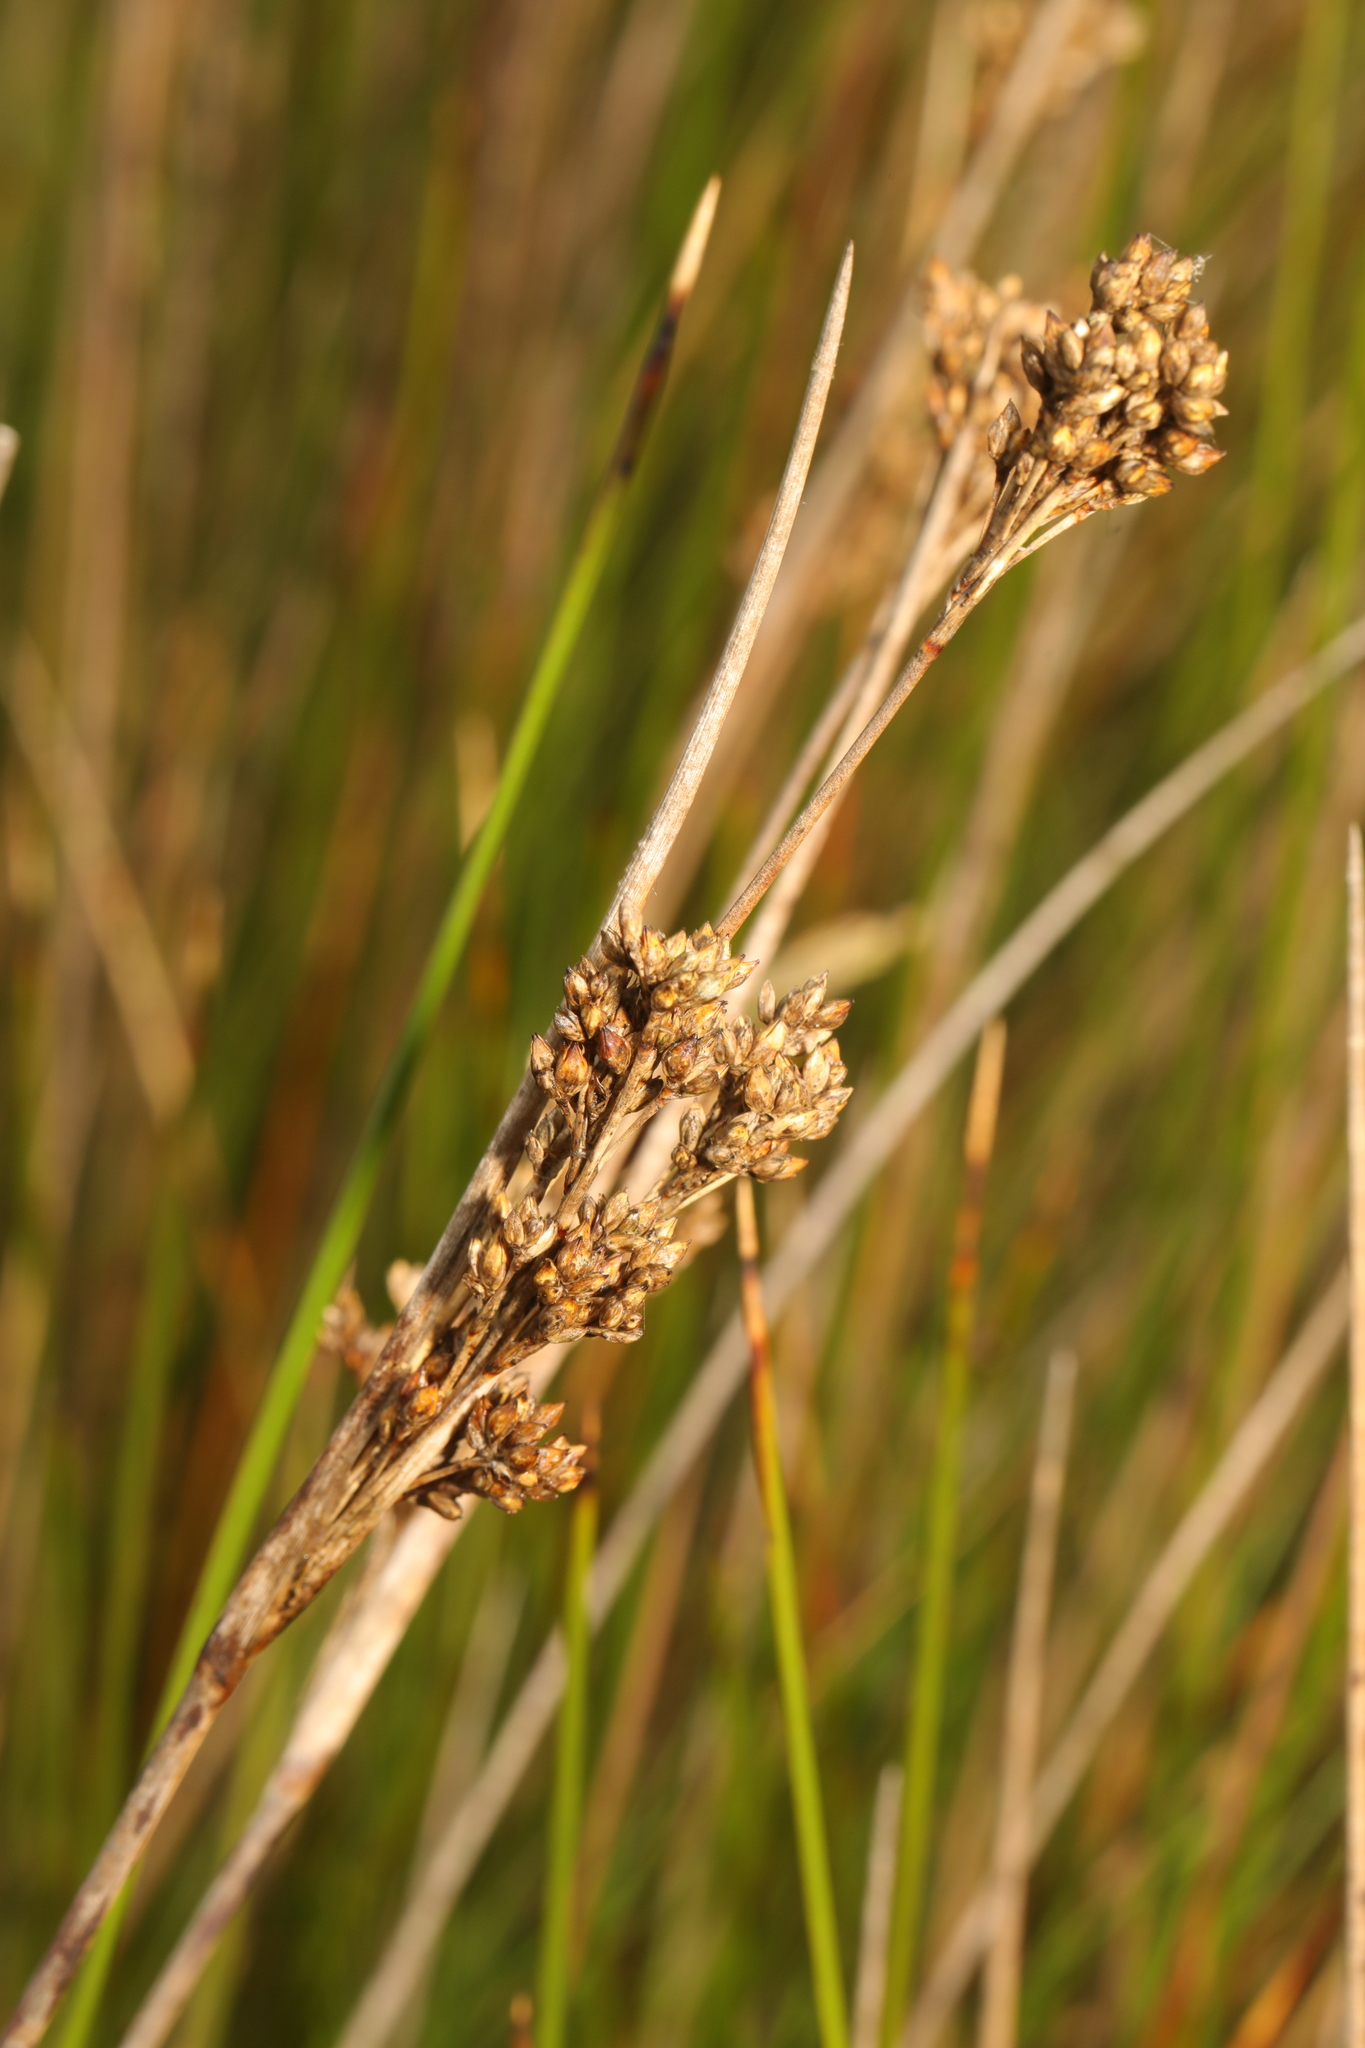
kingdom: Plantae
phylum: Tracheophyta
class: Liliopsida
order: Poales
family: Juncaceae
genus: Juncus
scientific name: Juncus maritimus
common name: Sea rush
